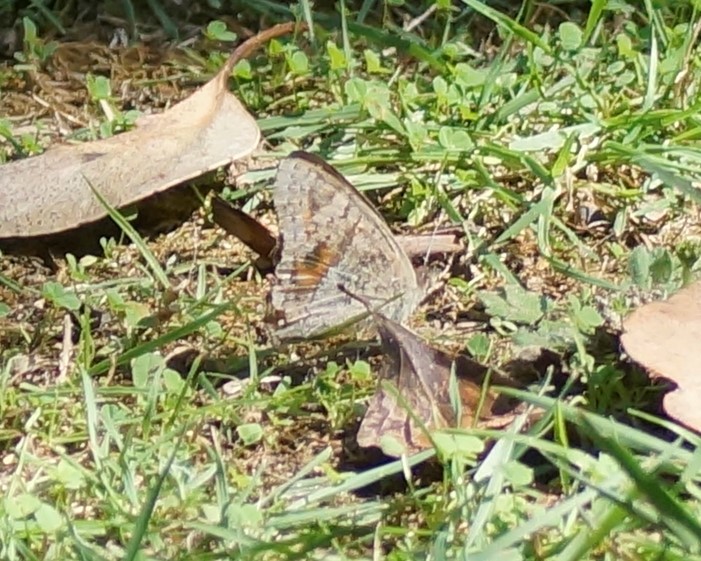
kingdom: Animalia
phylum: Arthropoda
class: Insecta
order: Lepidoptera
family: Nymphalidae
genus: Junonia
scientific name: Junonia villida
